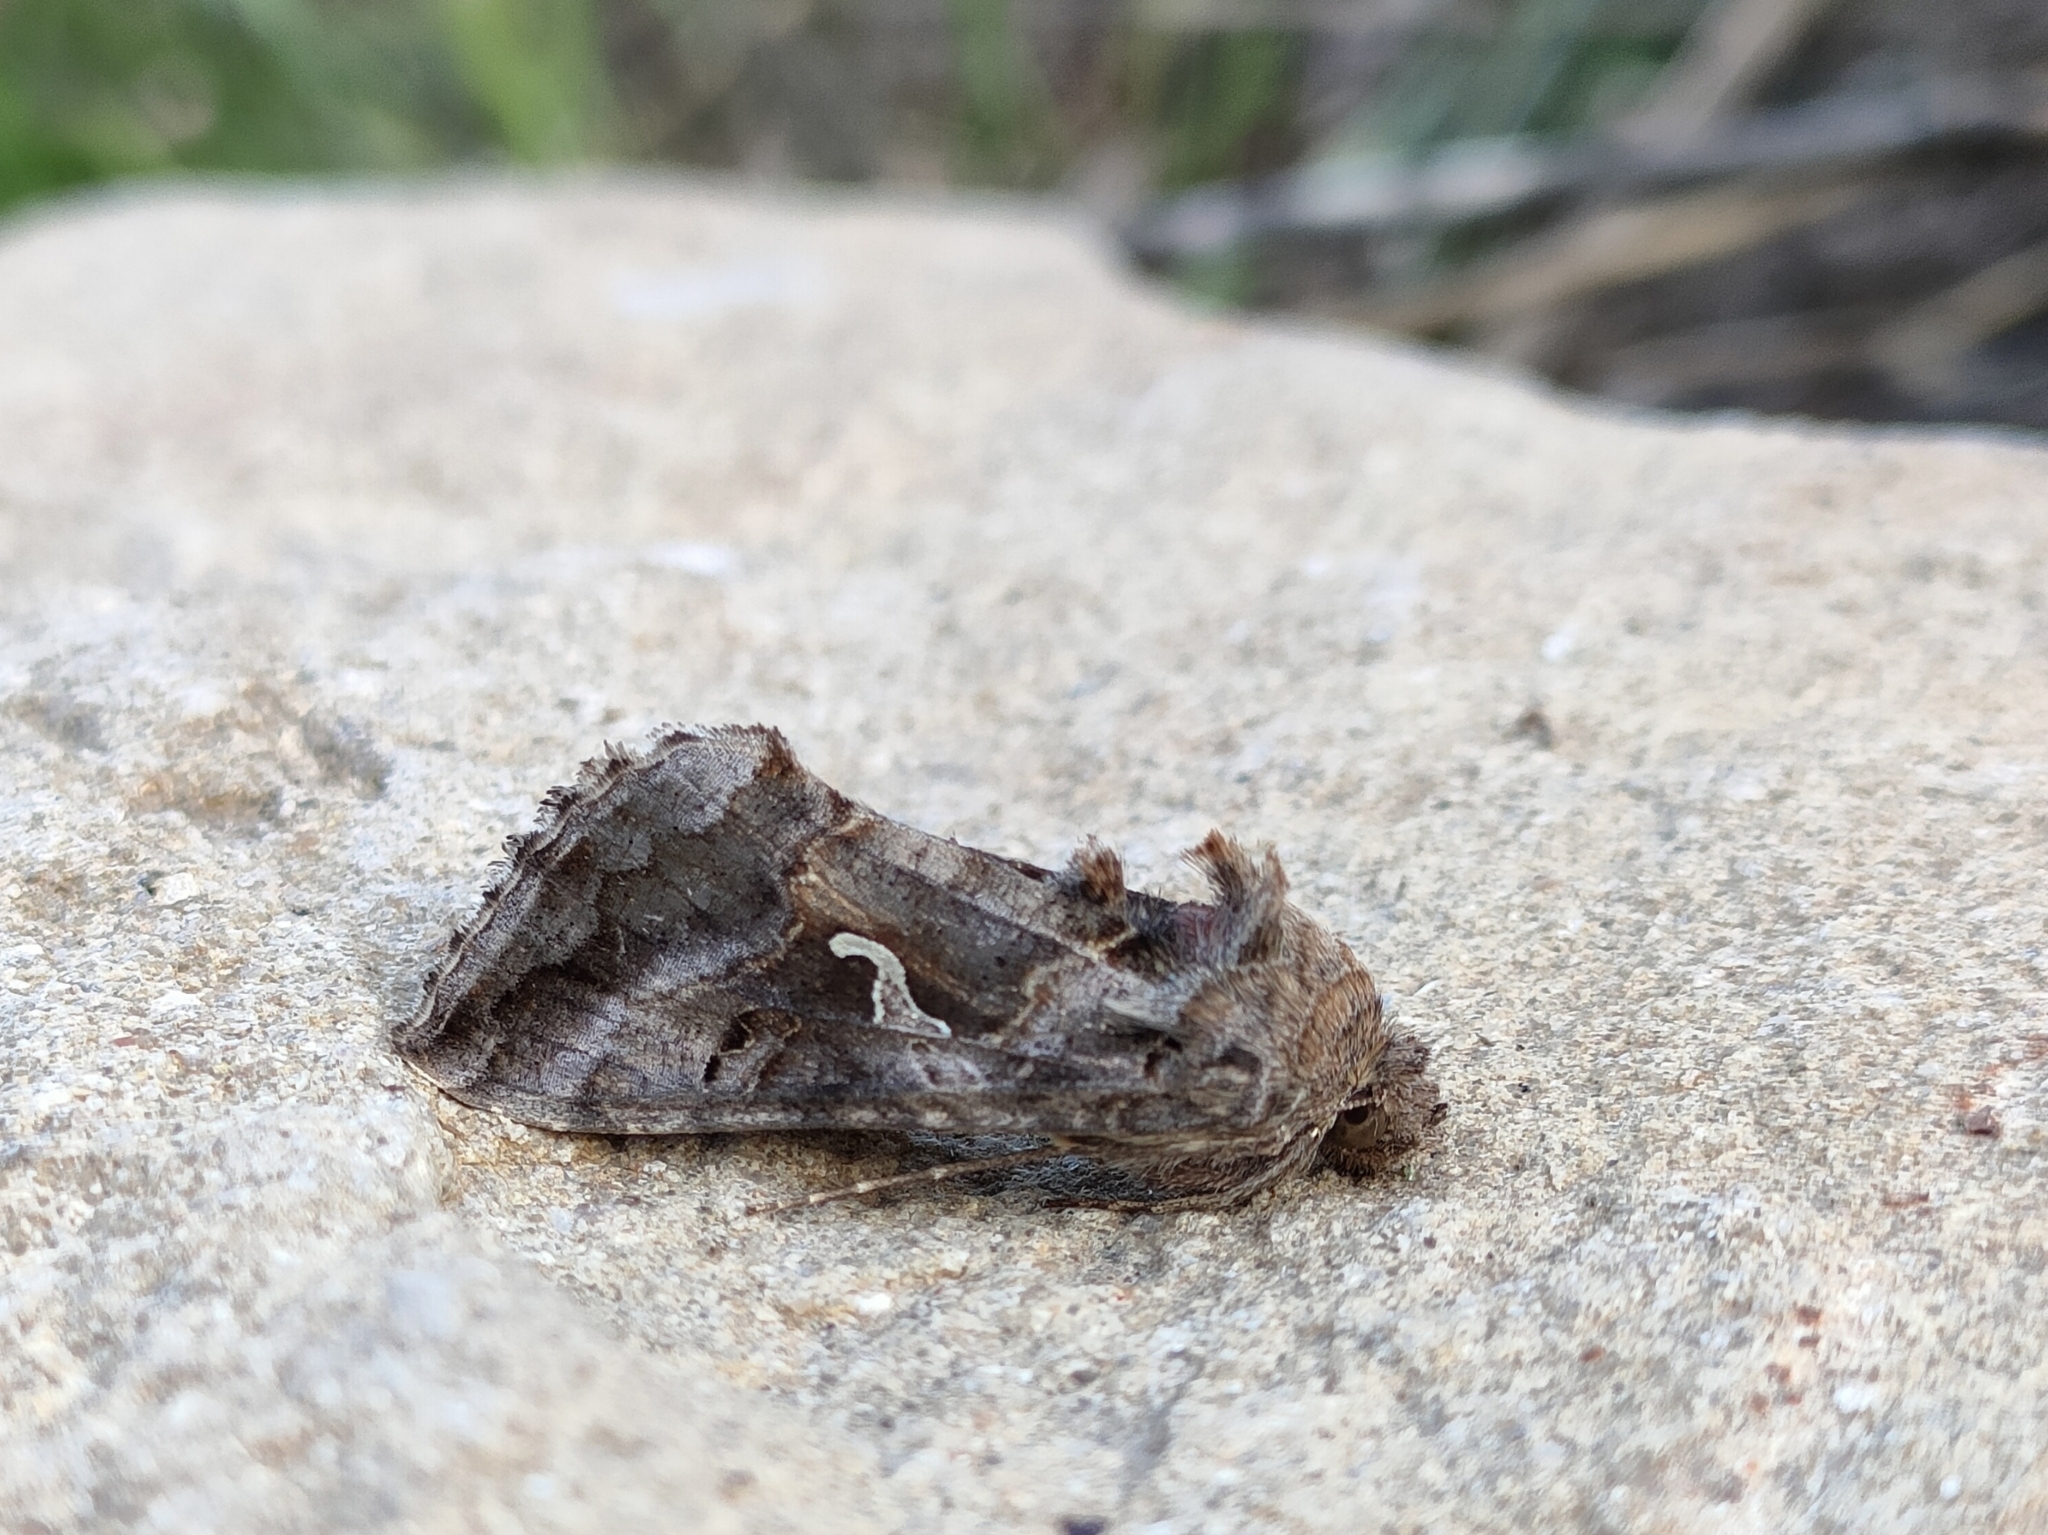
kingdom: Animalia
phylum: Arthropoda
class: Insecta
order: Lepidoptera
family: Noctuidae
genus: Autographa
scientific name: Autographa gamma
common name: Silver y
